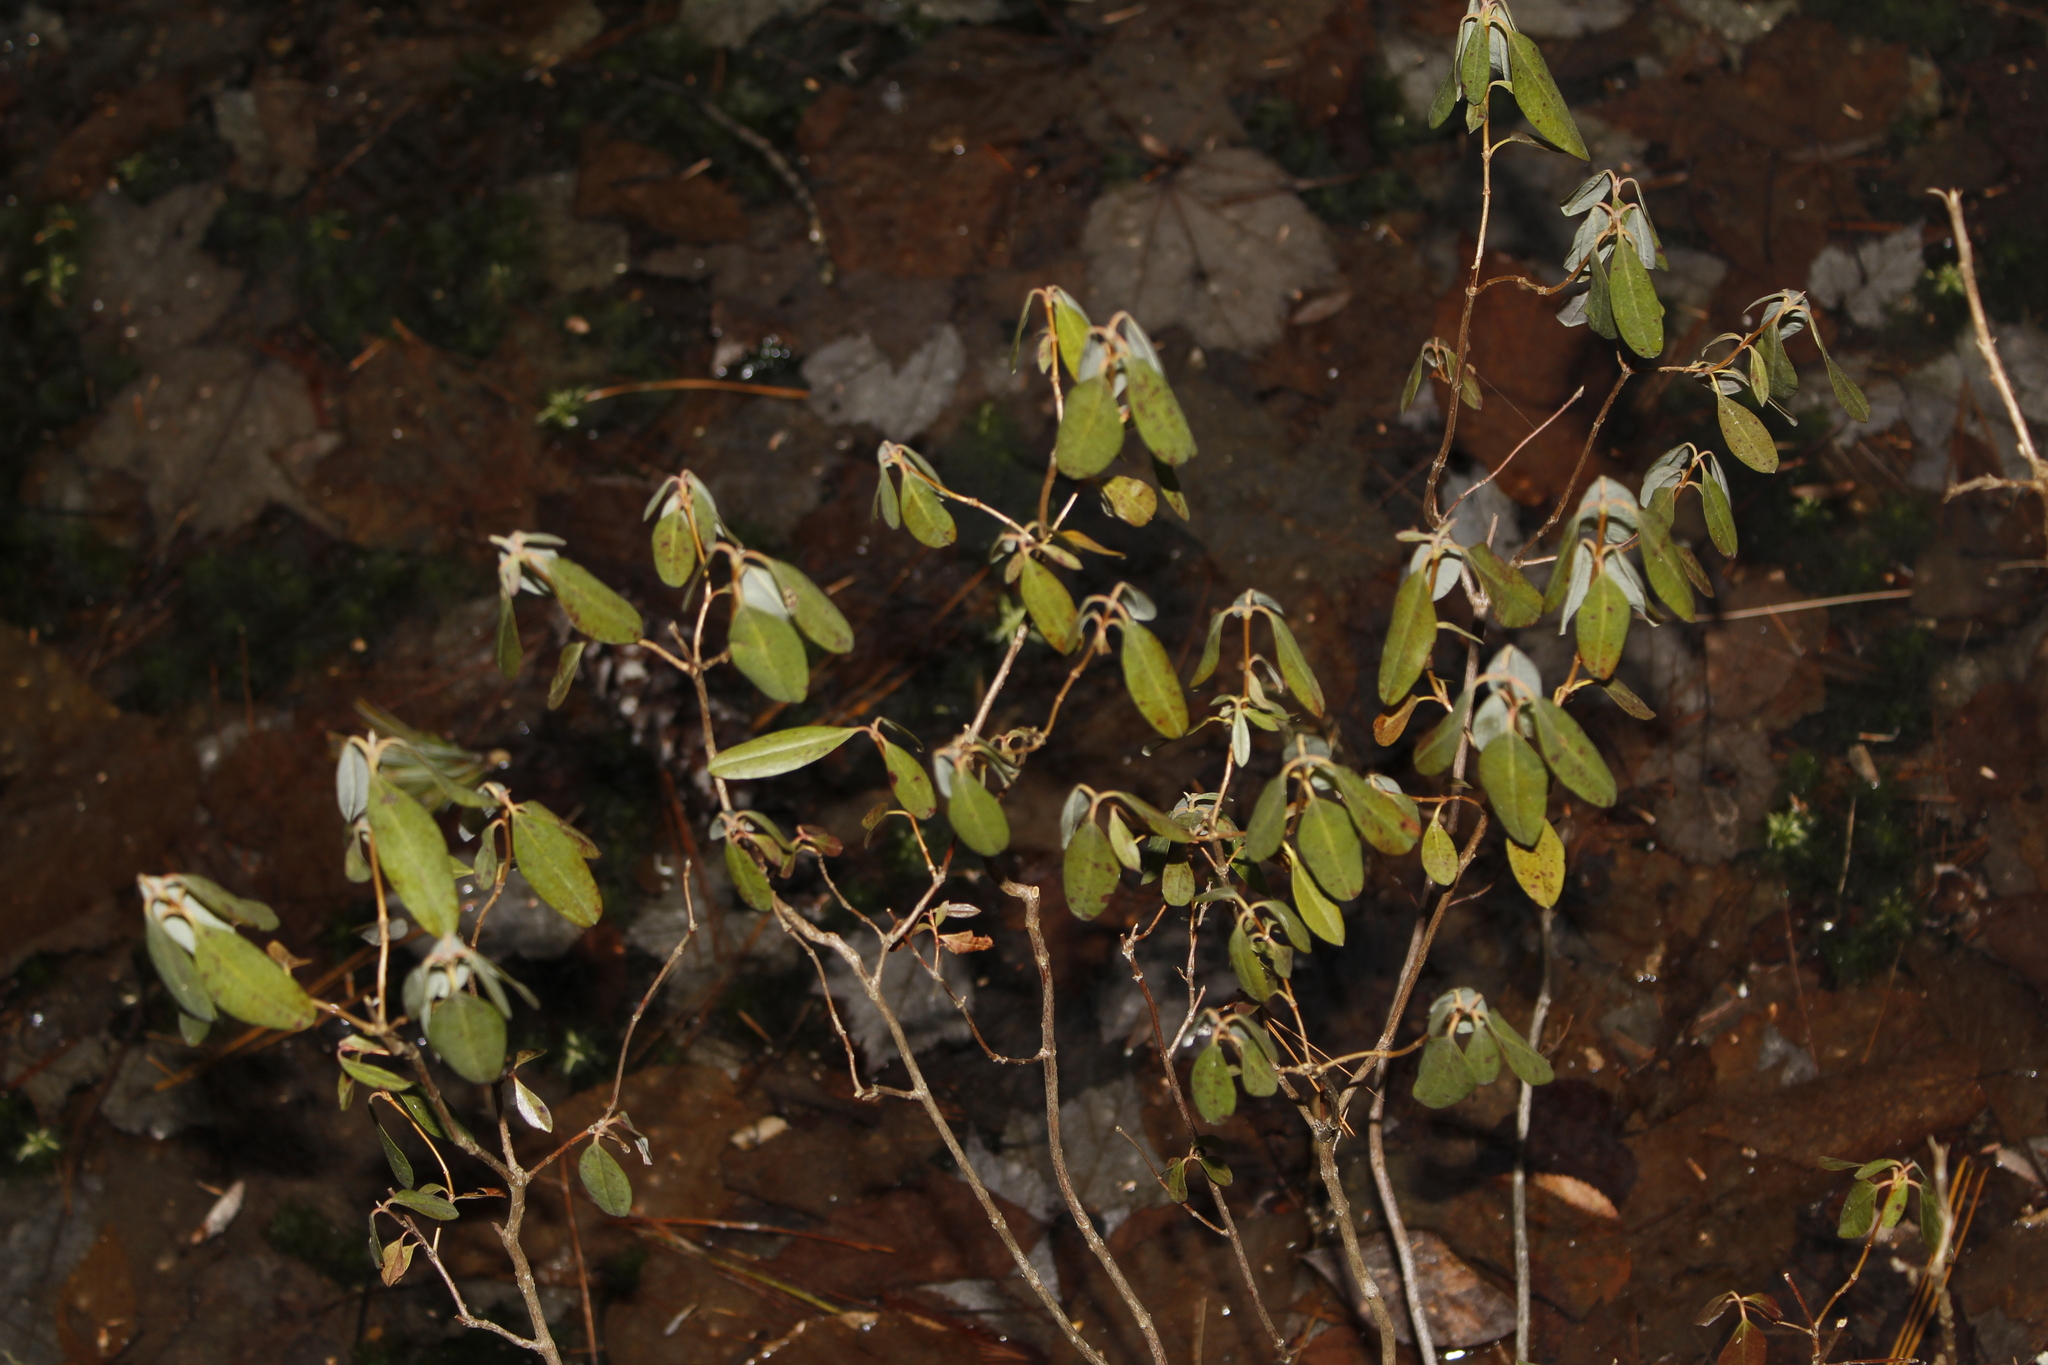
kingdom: Plantae
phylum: Tracheophyta
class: Magnoliopsida
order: Ericales
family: Ericaceae
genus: Kalmia
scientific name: Kalmia angustifolia
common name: Sheep-laurel
